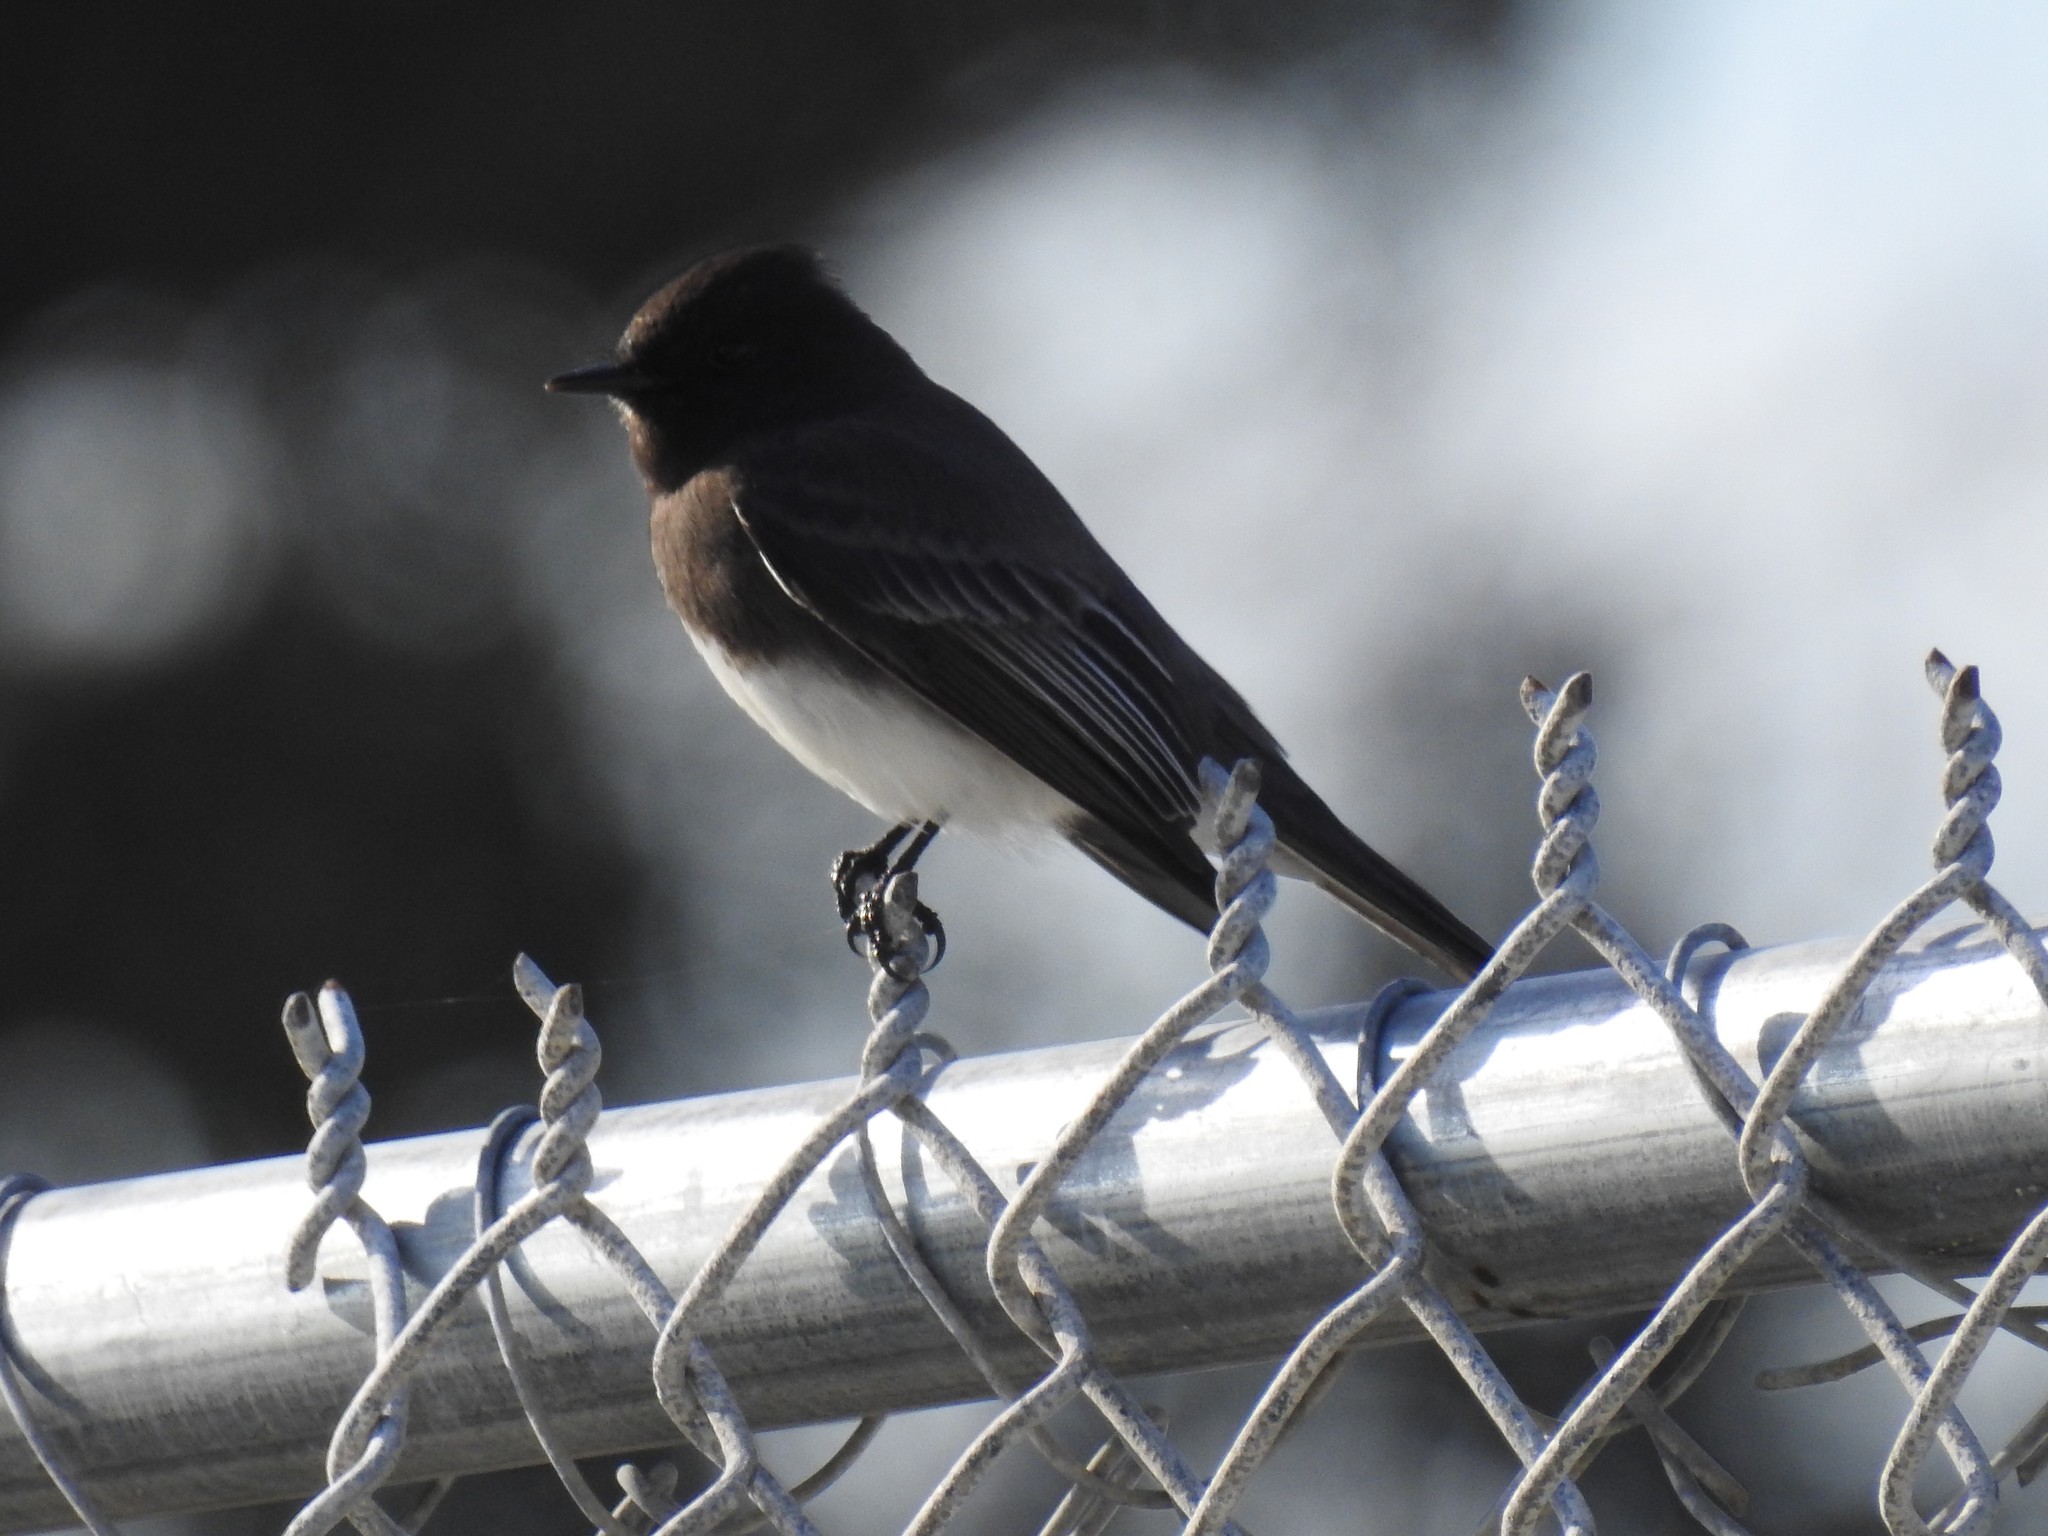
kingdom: Animalia
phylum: Chordata
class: Aves
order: Passeriformes
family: Tyrannidae
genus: Sayornis
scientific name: Sayornis nigricans
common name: Black phoebe
